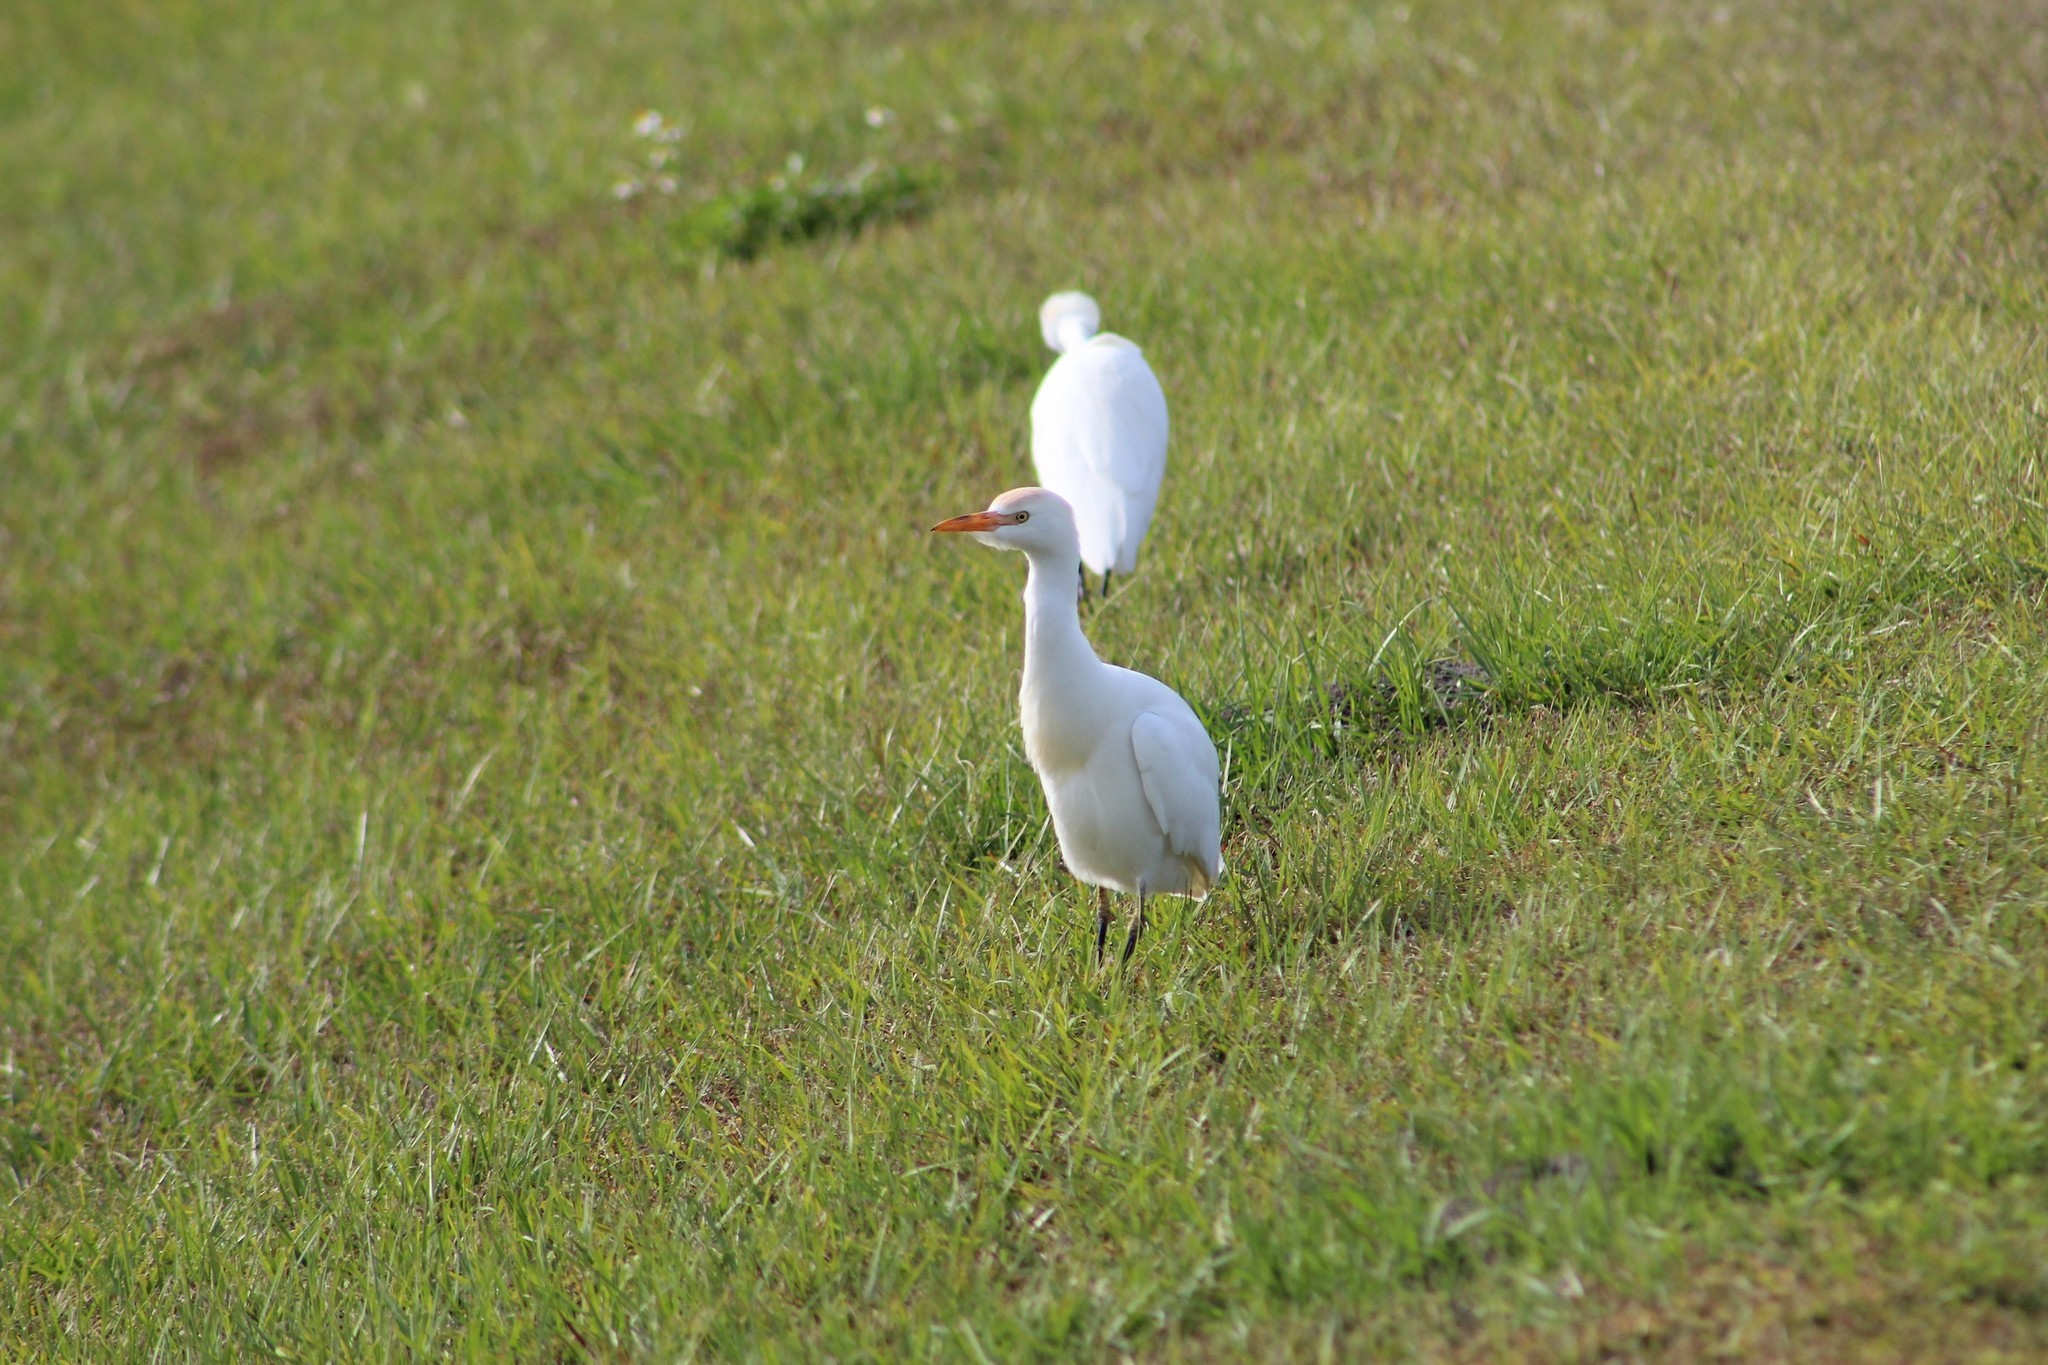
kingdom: Animalia
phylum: Chordata
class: Aves
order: Pelecaniformes
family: Ardeidae
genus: Bubulcus
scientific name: Bubulcus ibis
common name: Cattle egret
